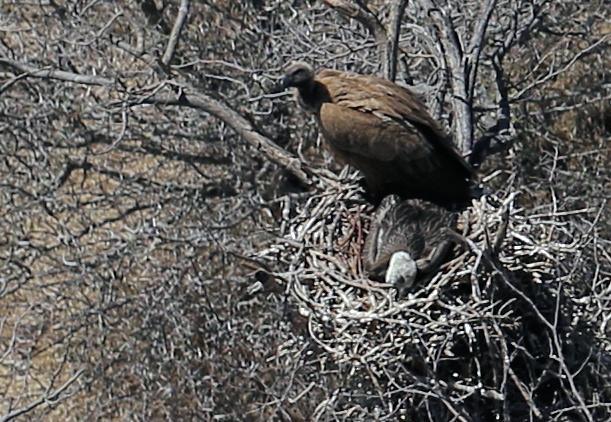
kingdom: Animalia
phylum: Chordata
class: Aves
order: Accipitriformes
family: Accipitridae
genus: Gyps
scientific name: Gyps africanus
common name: White-backed vulture
